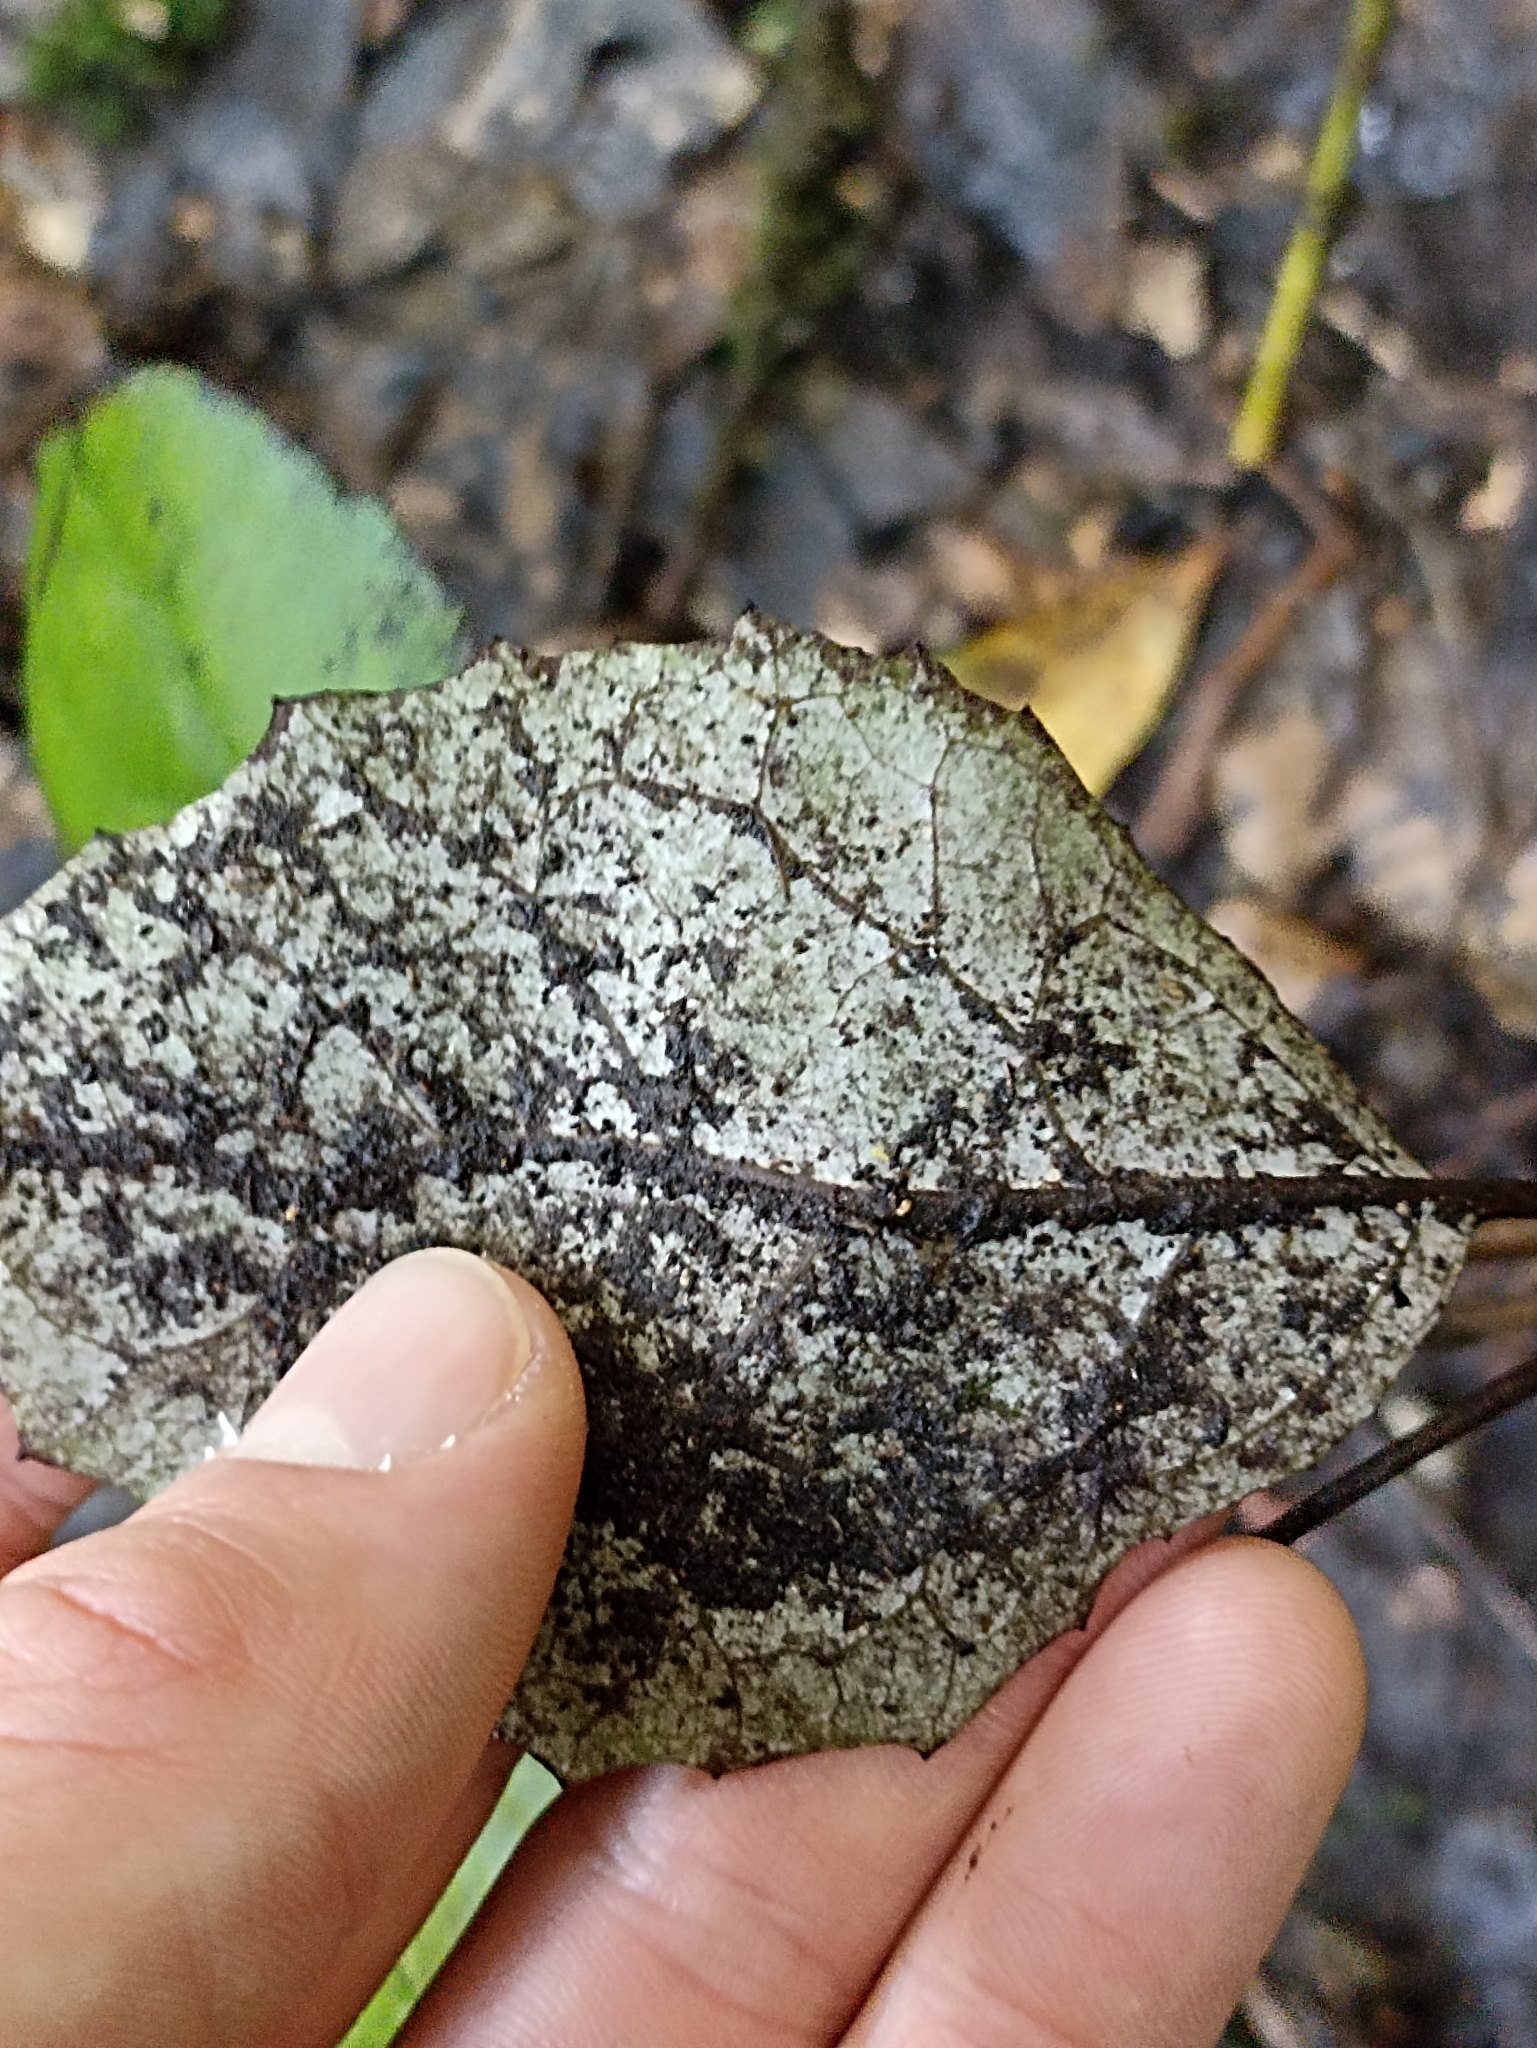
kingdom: Plantae
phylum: Tracheophyta
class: Magnoliopsida
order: Asterales
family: Asteraceae
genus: Olearia
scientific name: Olearia rani
